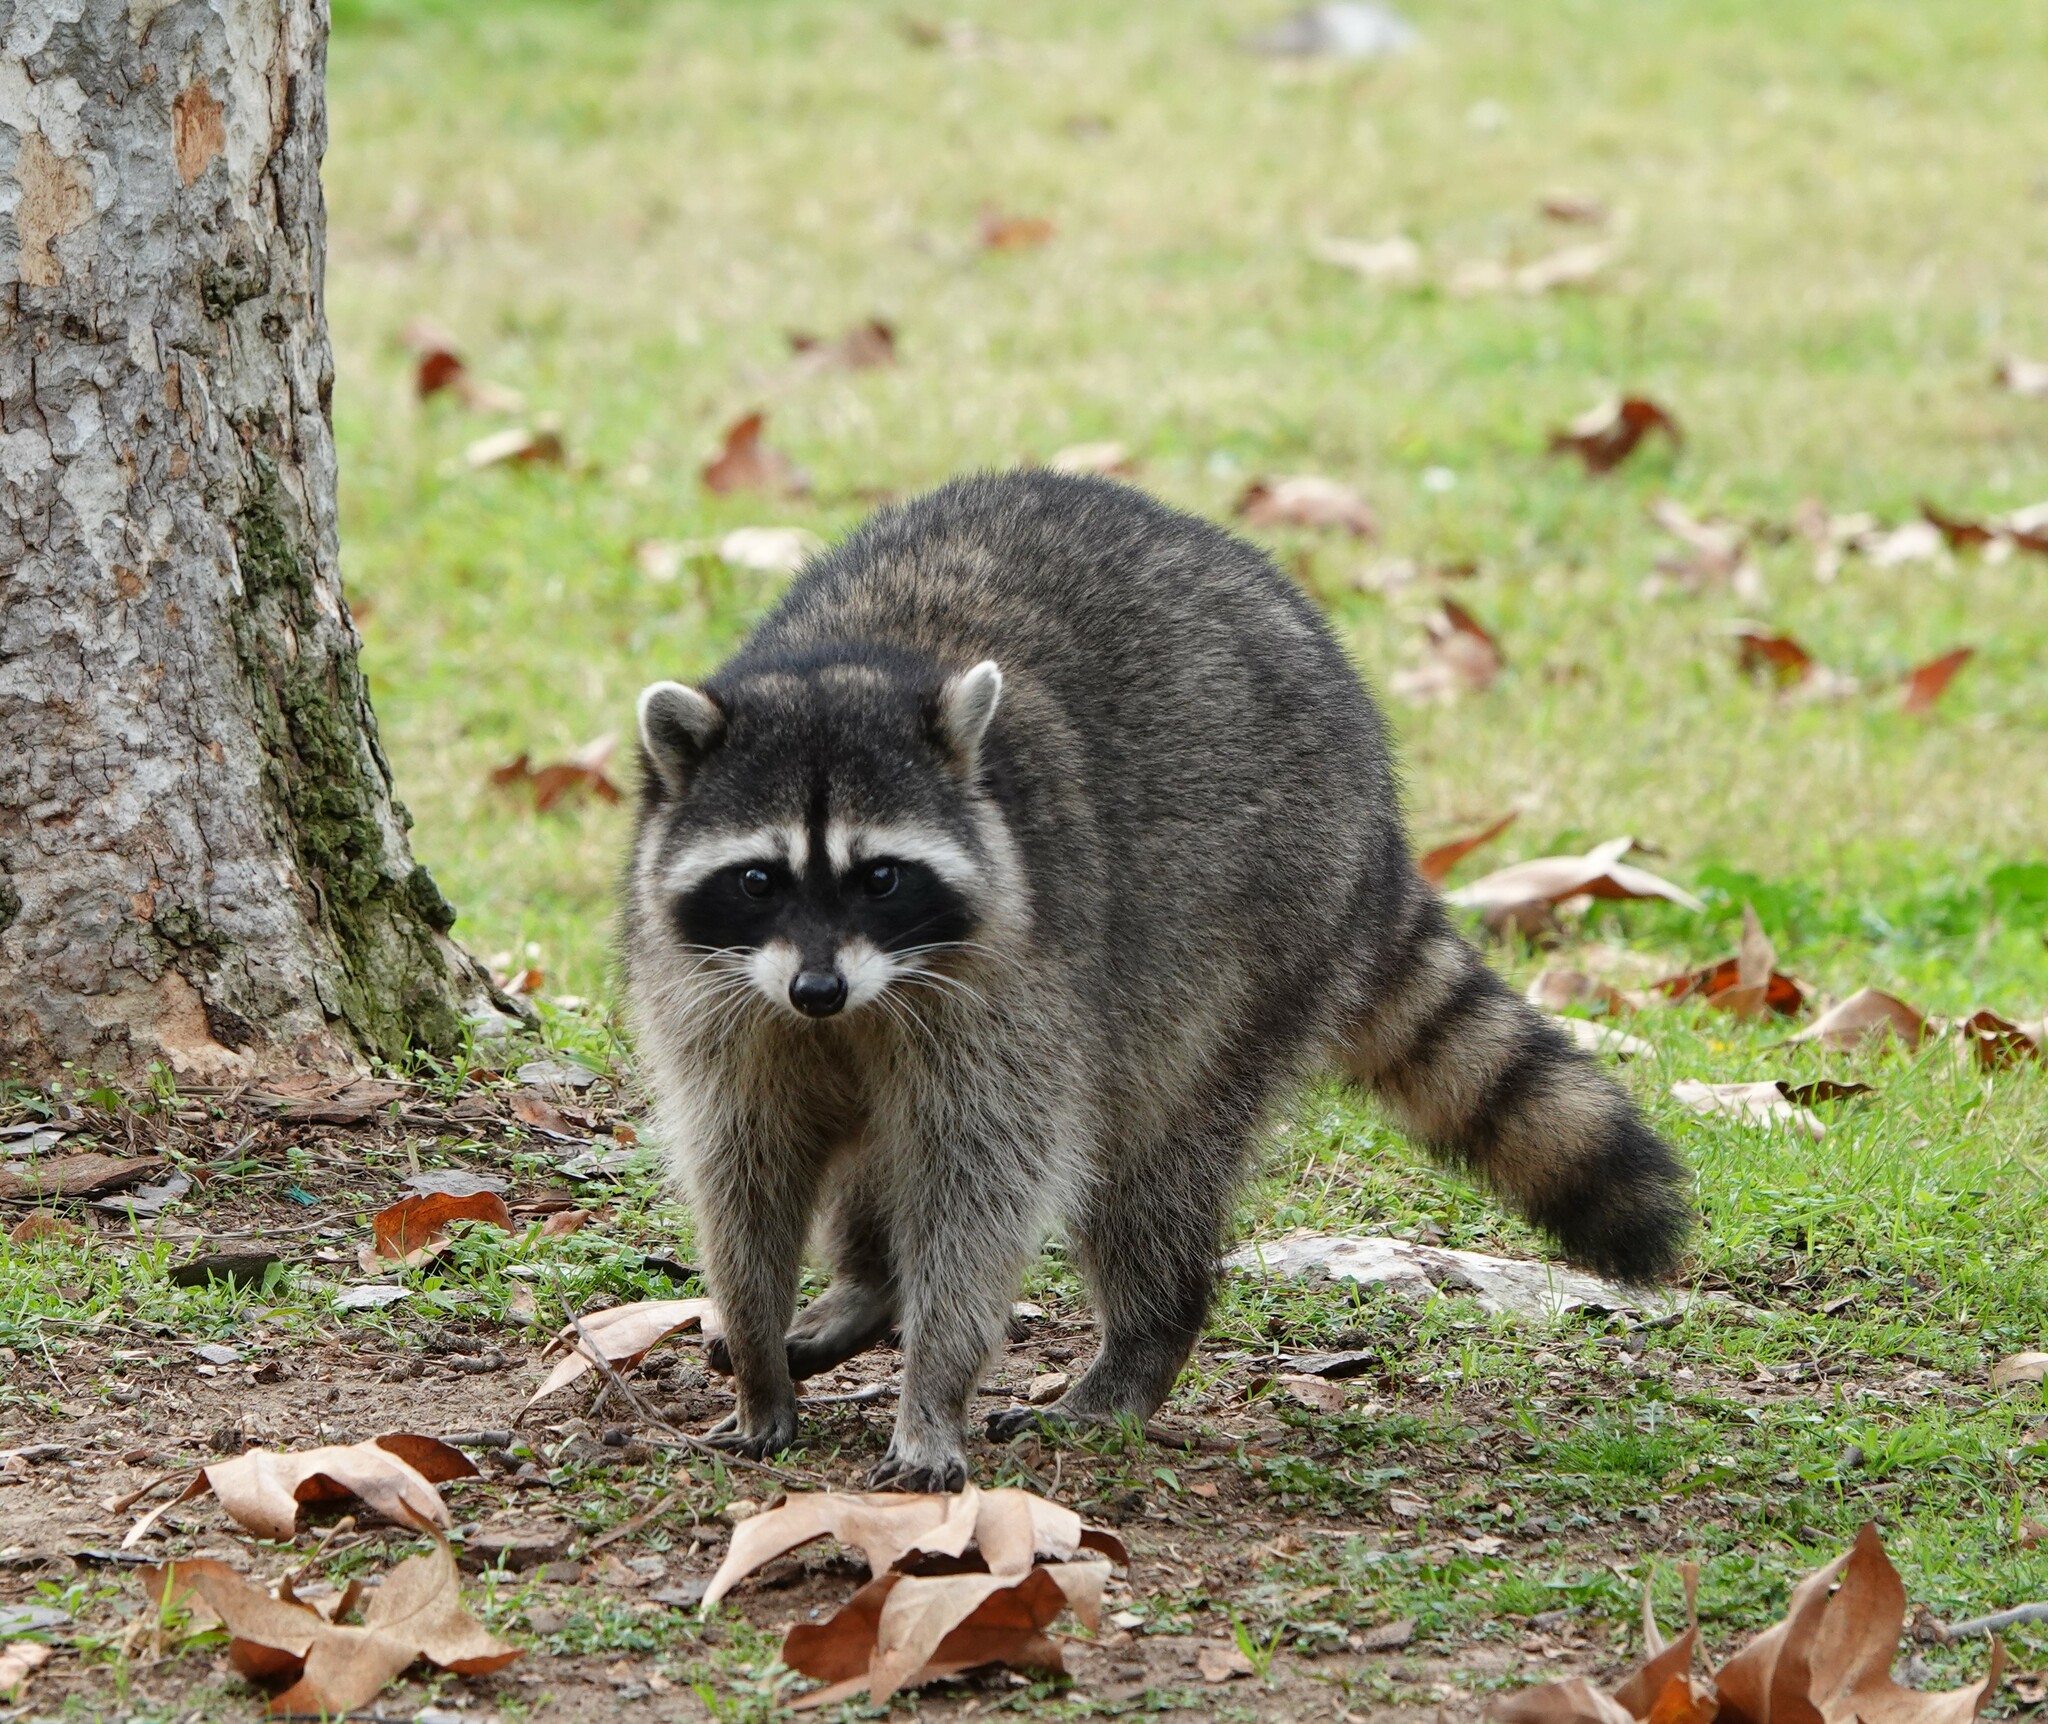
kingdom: Animalia
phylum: Chordata
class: Mammalia
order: Carnivora
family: Procyonidae
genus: Procyon
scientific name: Procyon lotor
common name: Raccoon
